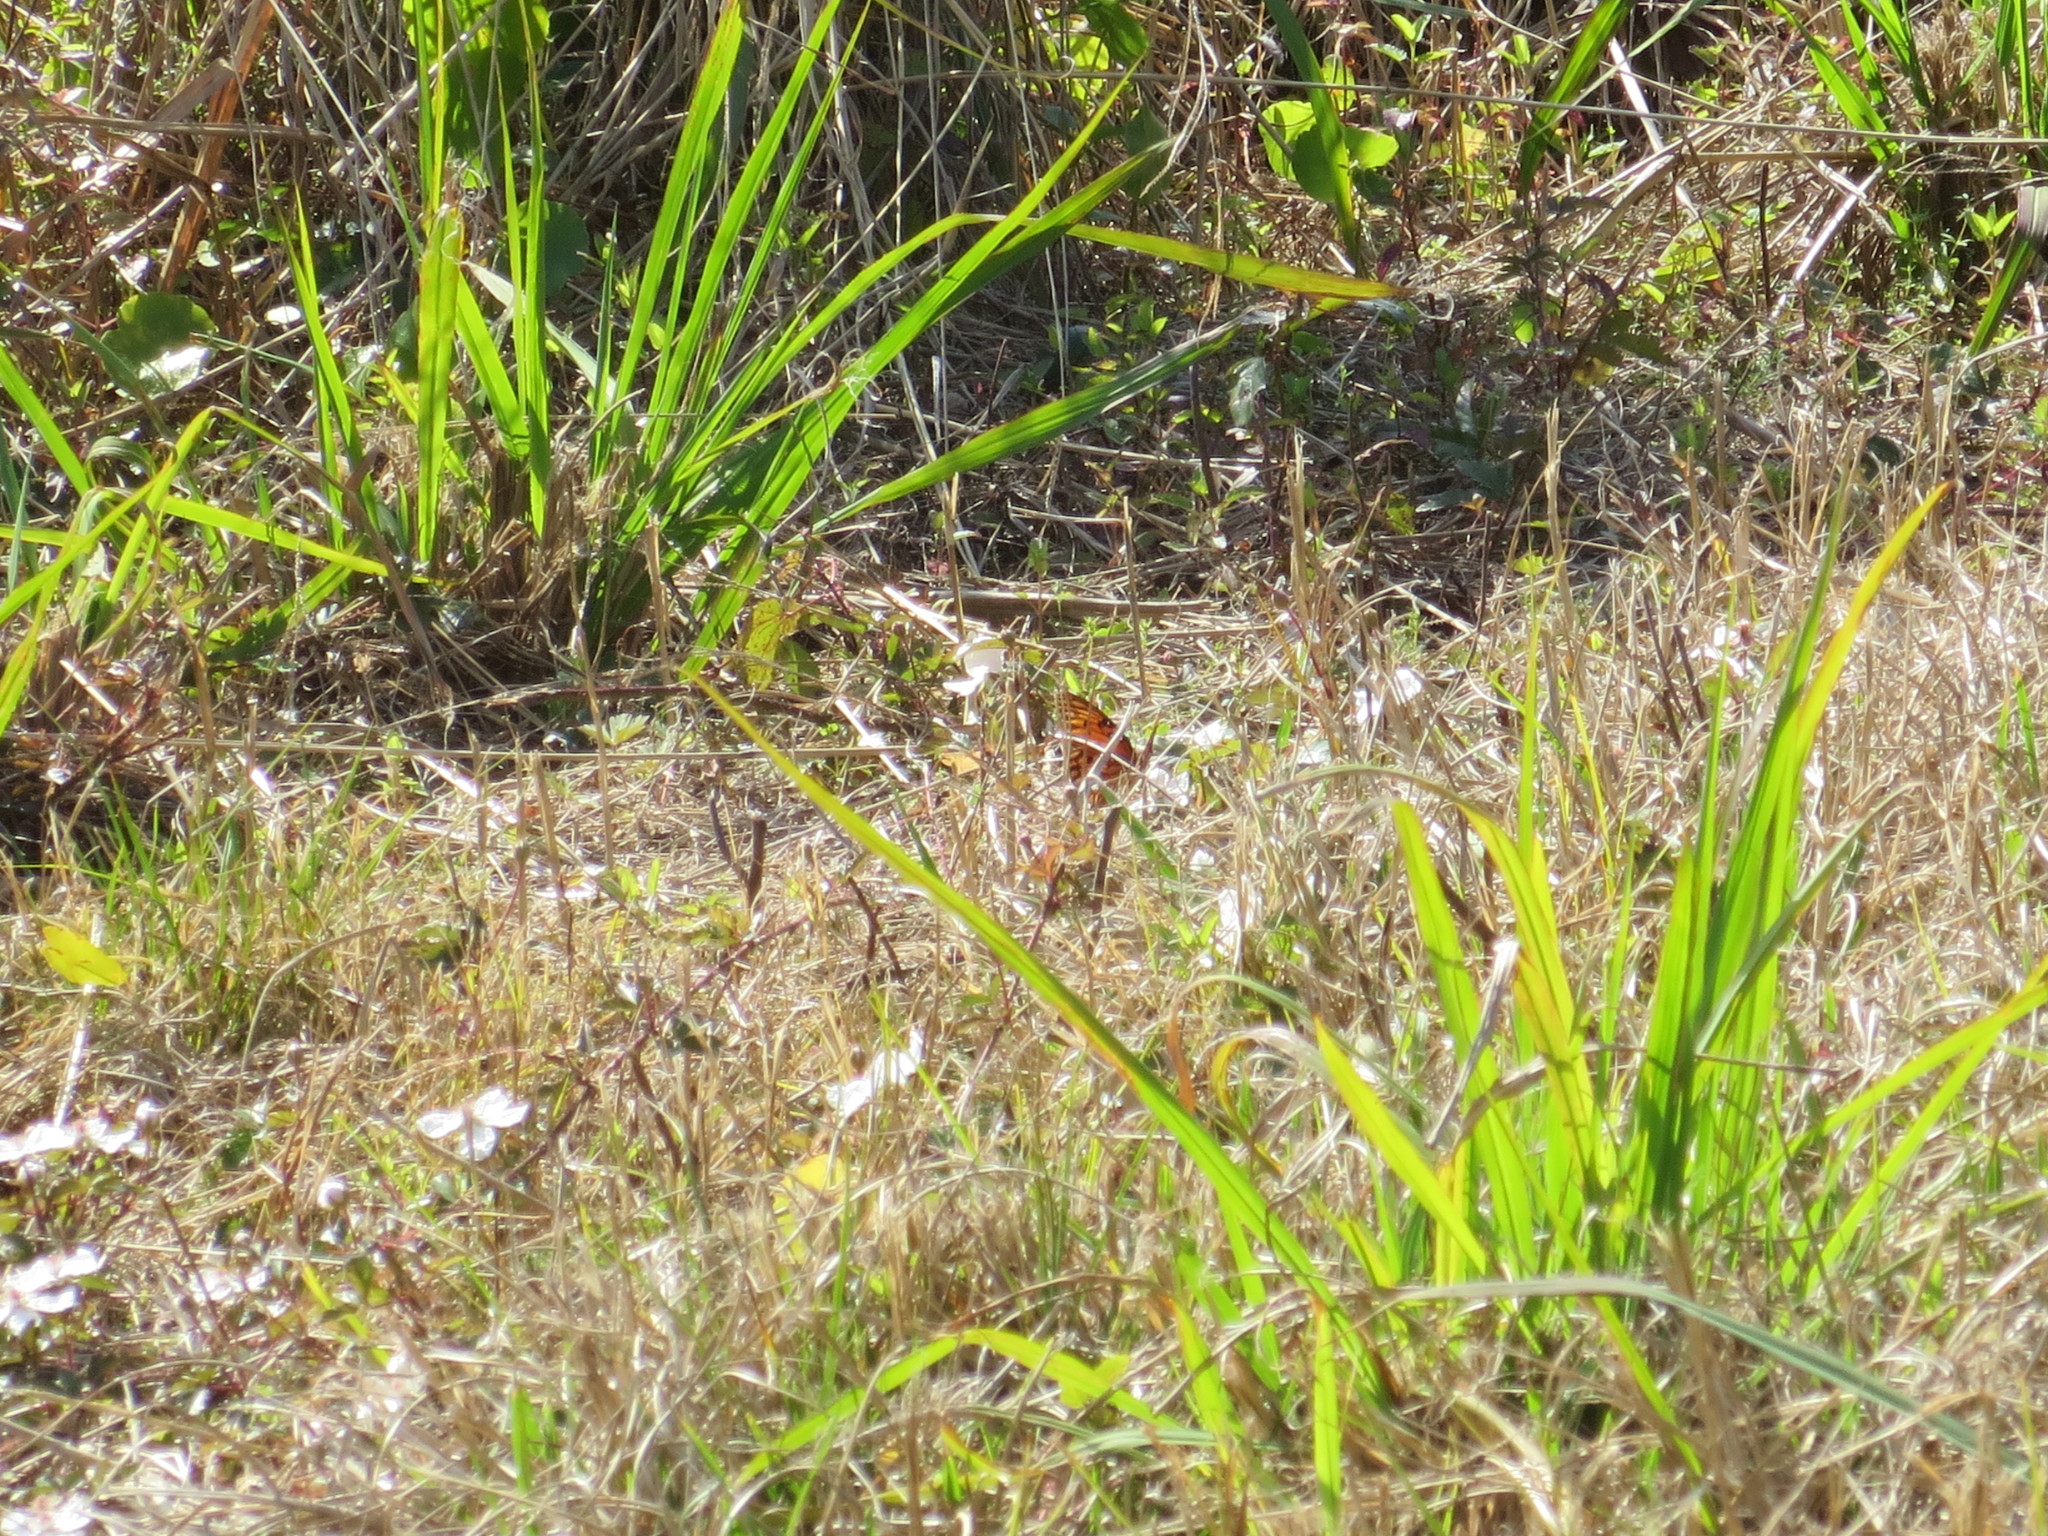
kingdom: Animalia
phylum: Arthropoda
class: Insecta
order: Lepidoptera
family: Nymphalidae
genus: Dione
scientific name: Dione vanillae
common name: Gulf fritillary
